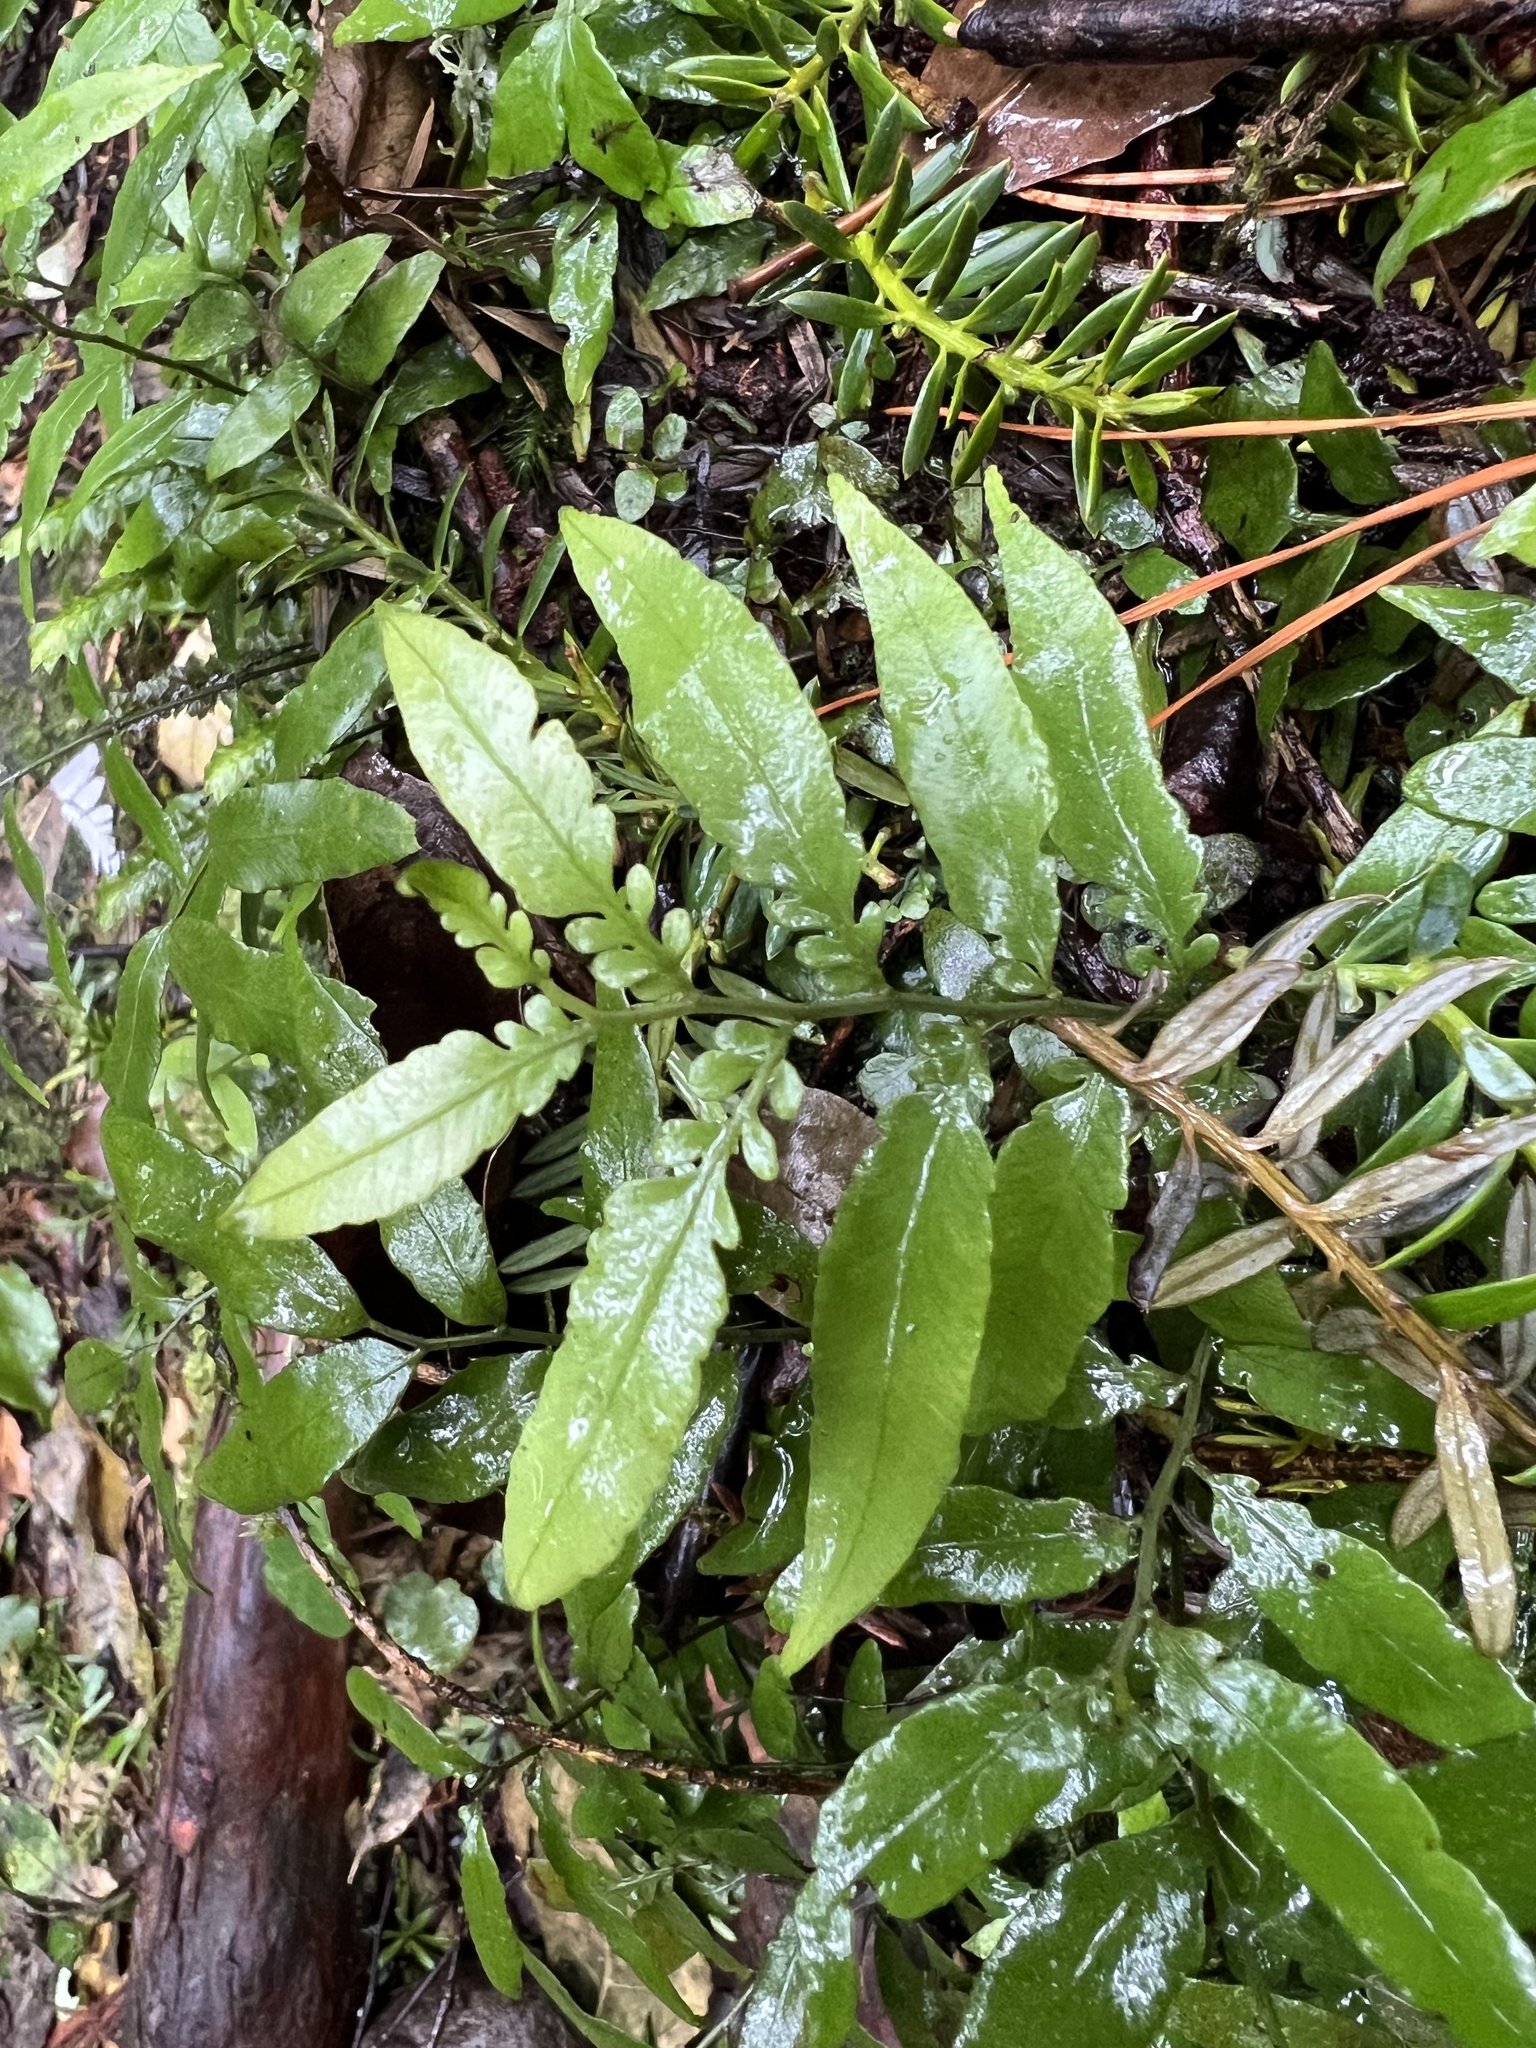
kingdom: Plantae
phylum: Tracheophyta
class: Polypodiopsida
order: Polypodiales
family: Tectariaceae
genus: Arthropteris
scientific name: Arthropteris tenella
